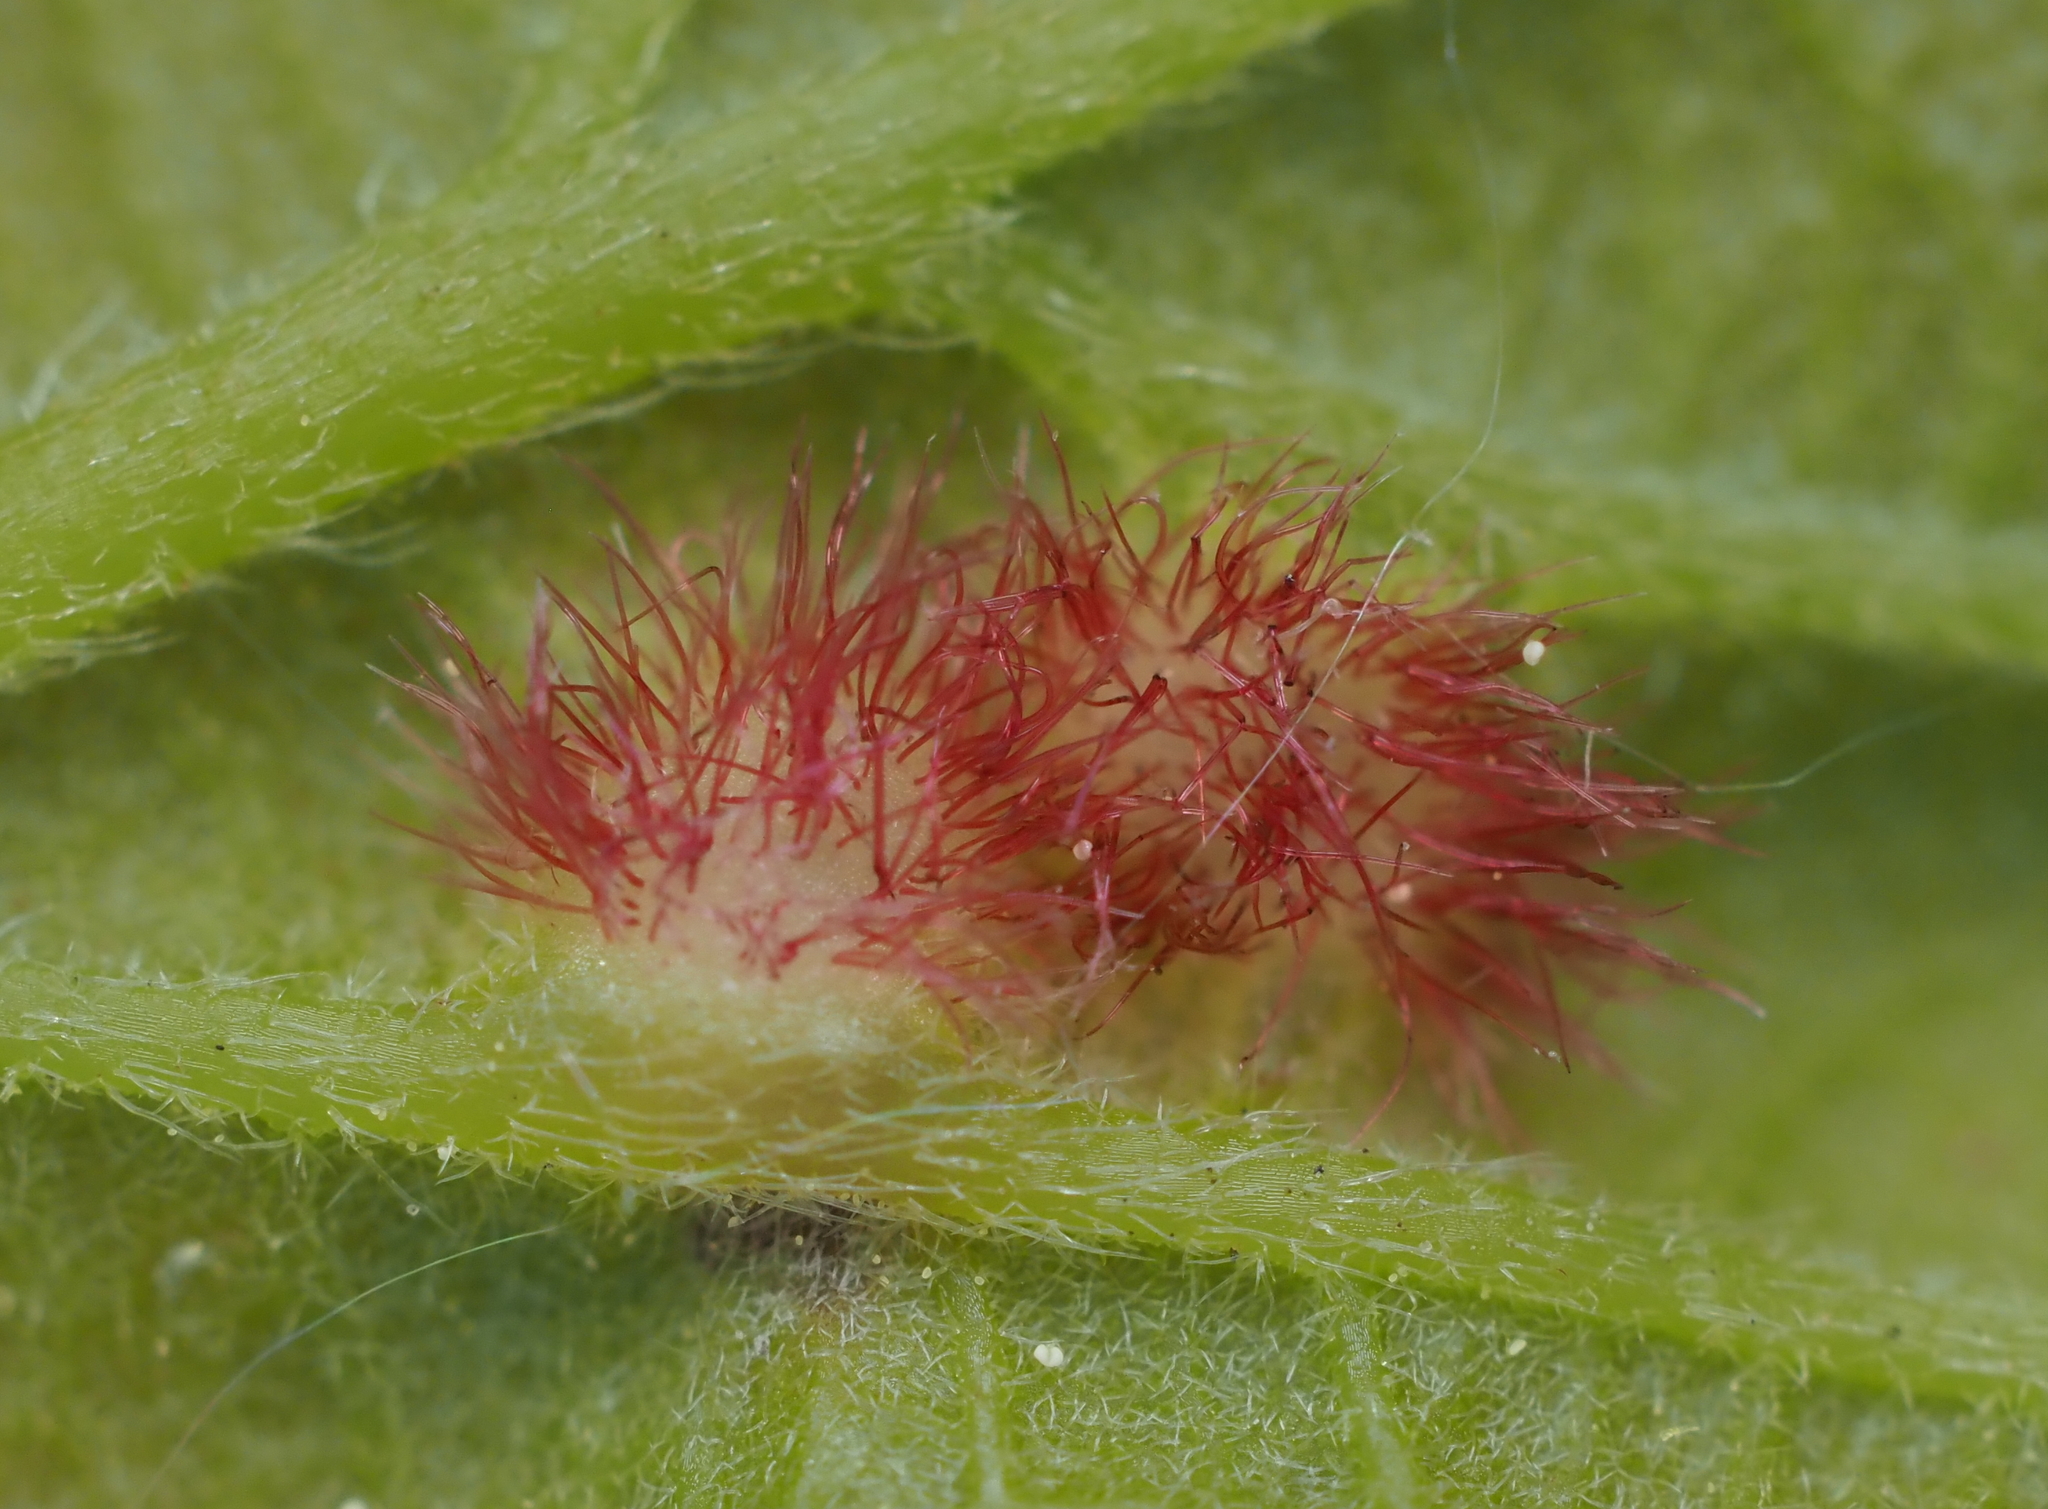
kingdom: Animalia
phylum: Arthropoda
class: Insecta
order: Hymenoptera
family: Cynipidae
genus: Neuroterus
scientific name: Neuroterus
